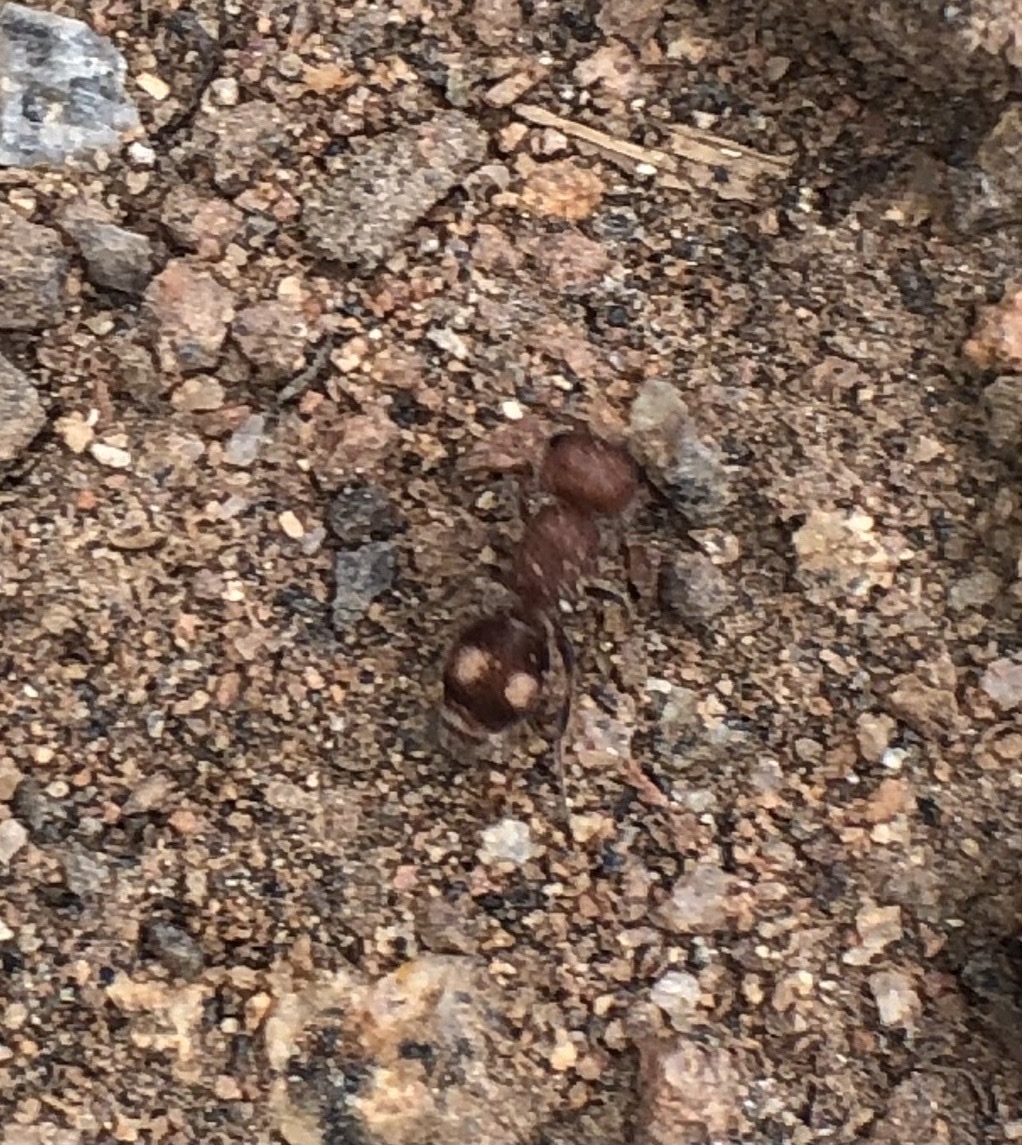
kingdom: Animalia
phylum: Arthropoda
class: Insecta
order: Hymenoptera
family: Mutillidae
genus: Pseudomethoca
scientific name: Pseudomethoca athamas
